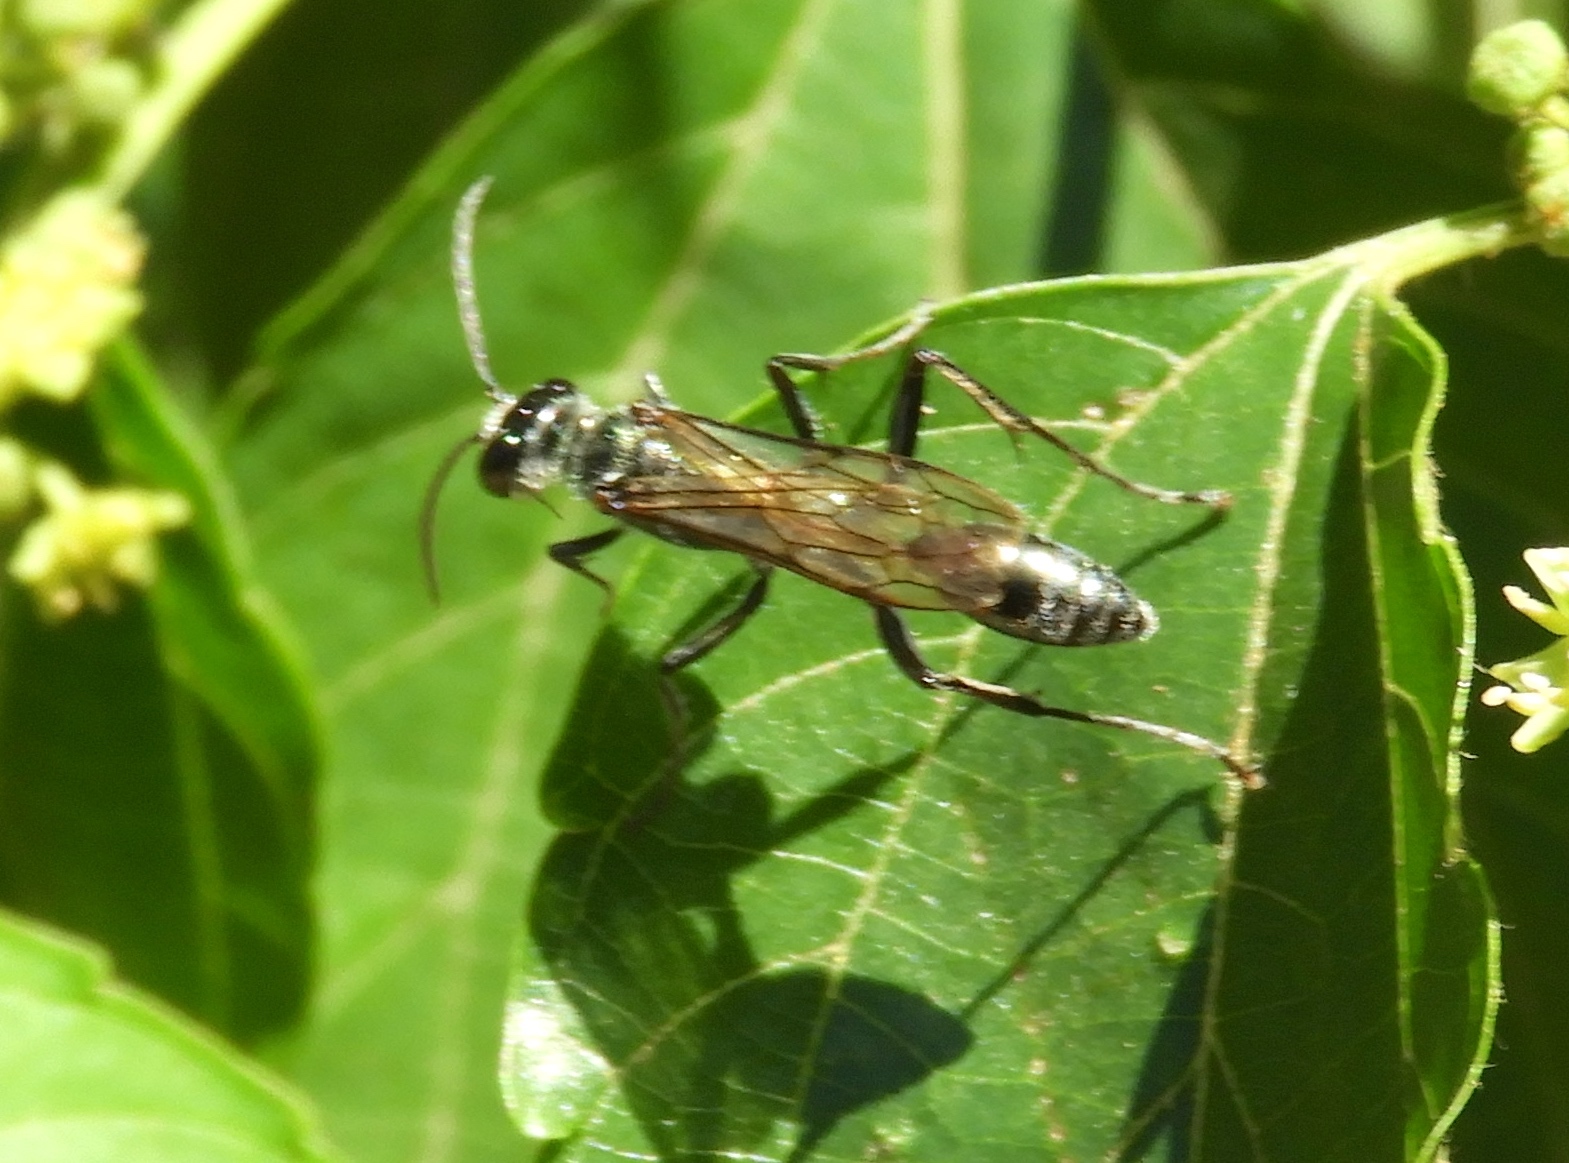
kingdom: Animalia
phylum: Arthropoda
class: Insecta
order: Hymenoptera
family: Sphecidae
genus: Chalybion
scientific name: Chalybion
